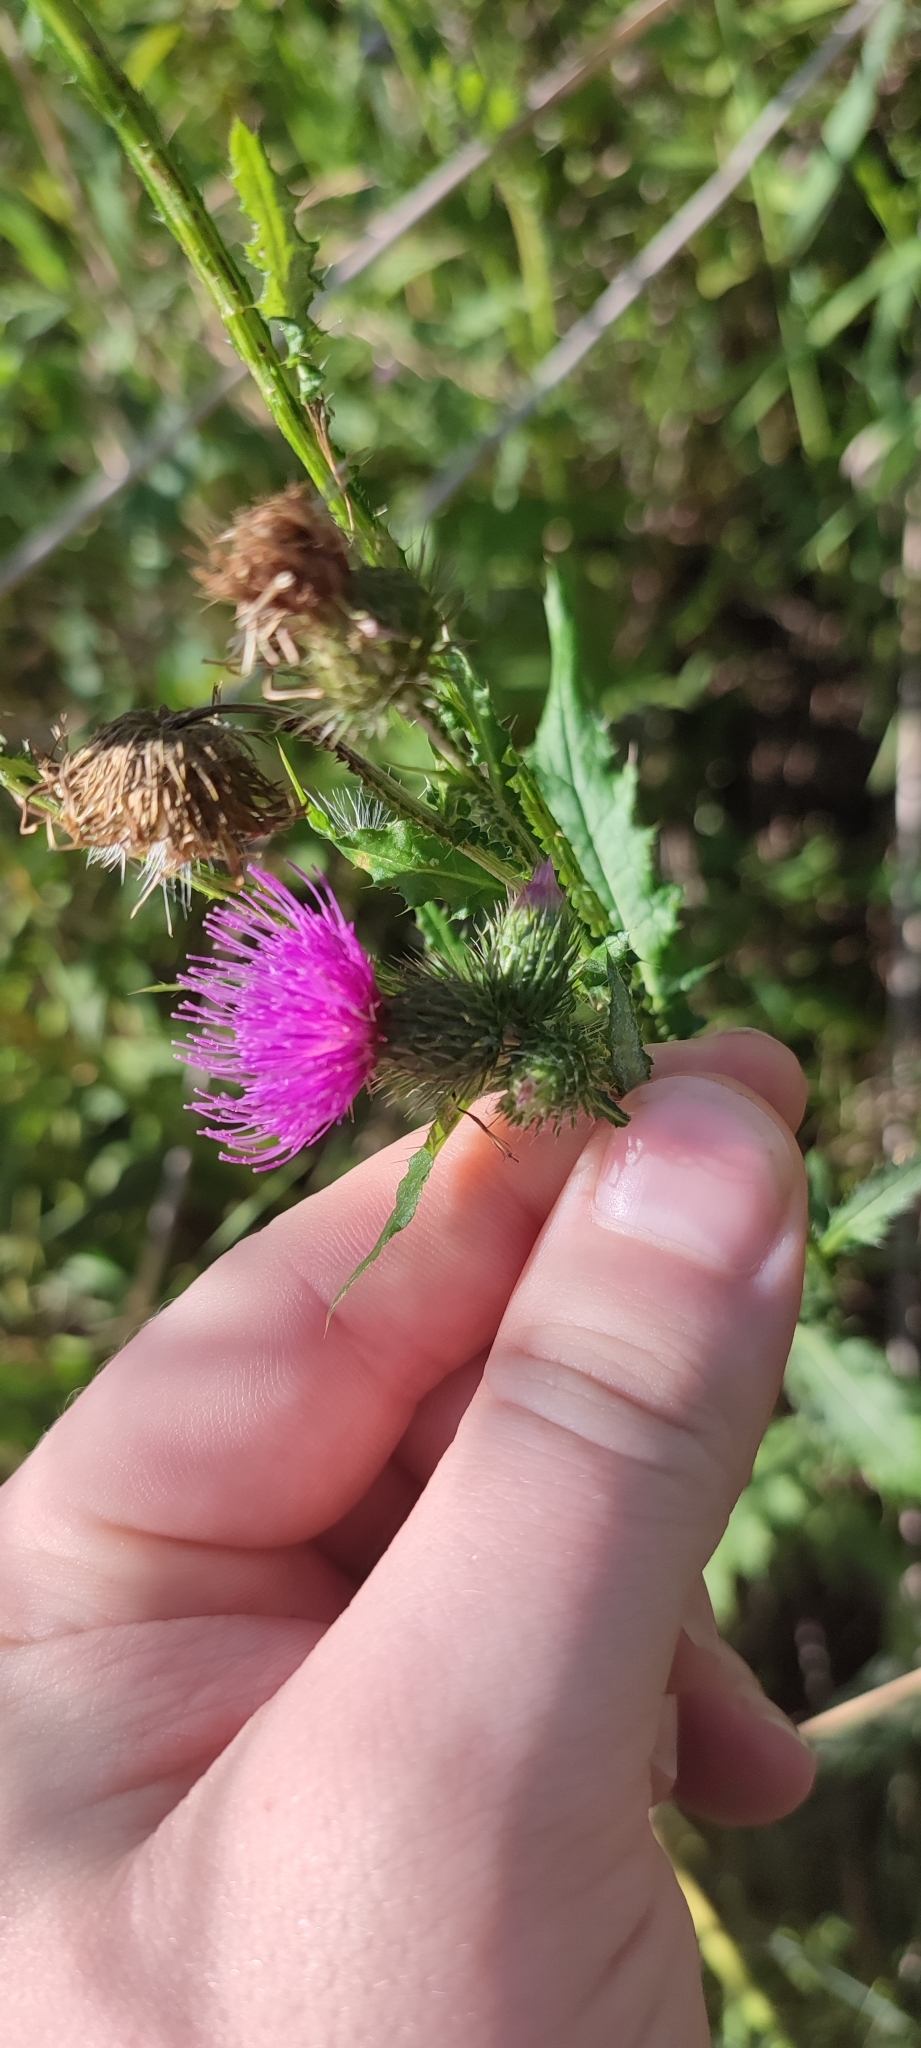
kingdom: Plantae
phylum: Tracheophyta
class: Magnoliopsida
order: Asterales
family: Asteraceae
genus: Carduus
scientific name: Carduus crispus
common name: Welted thistle
